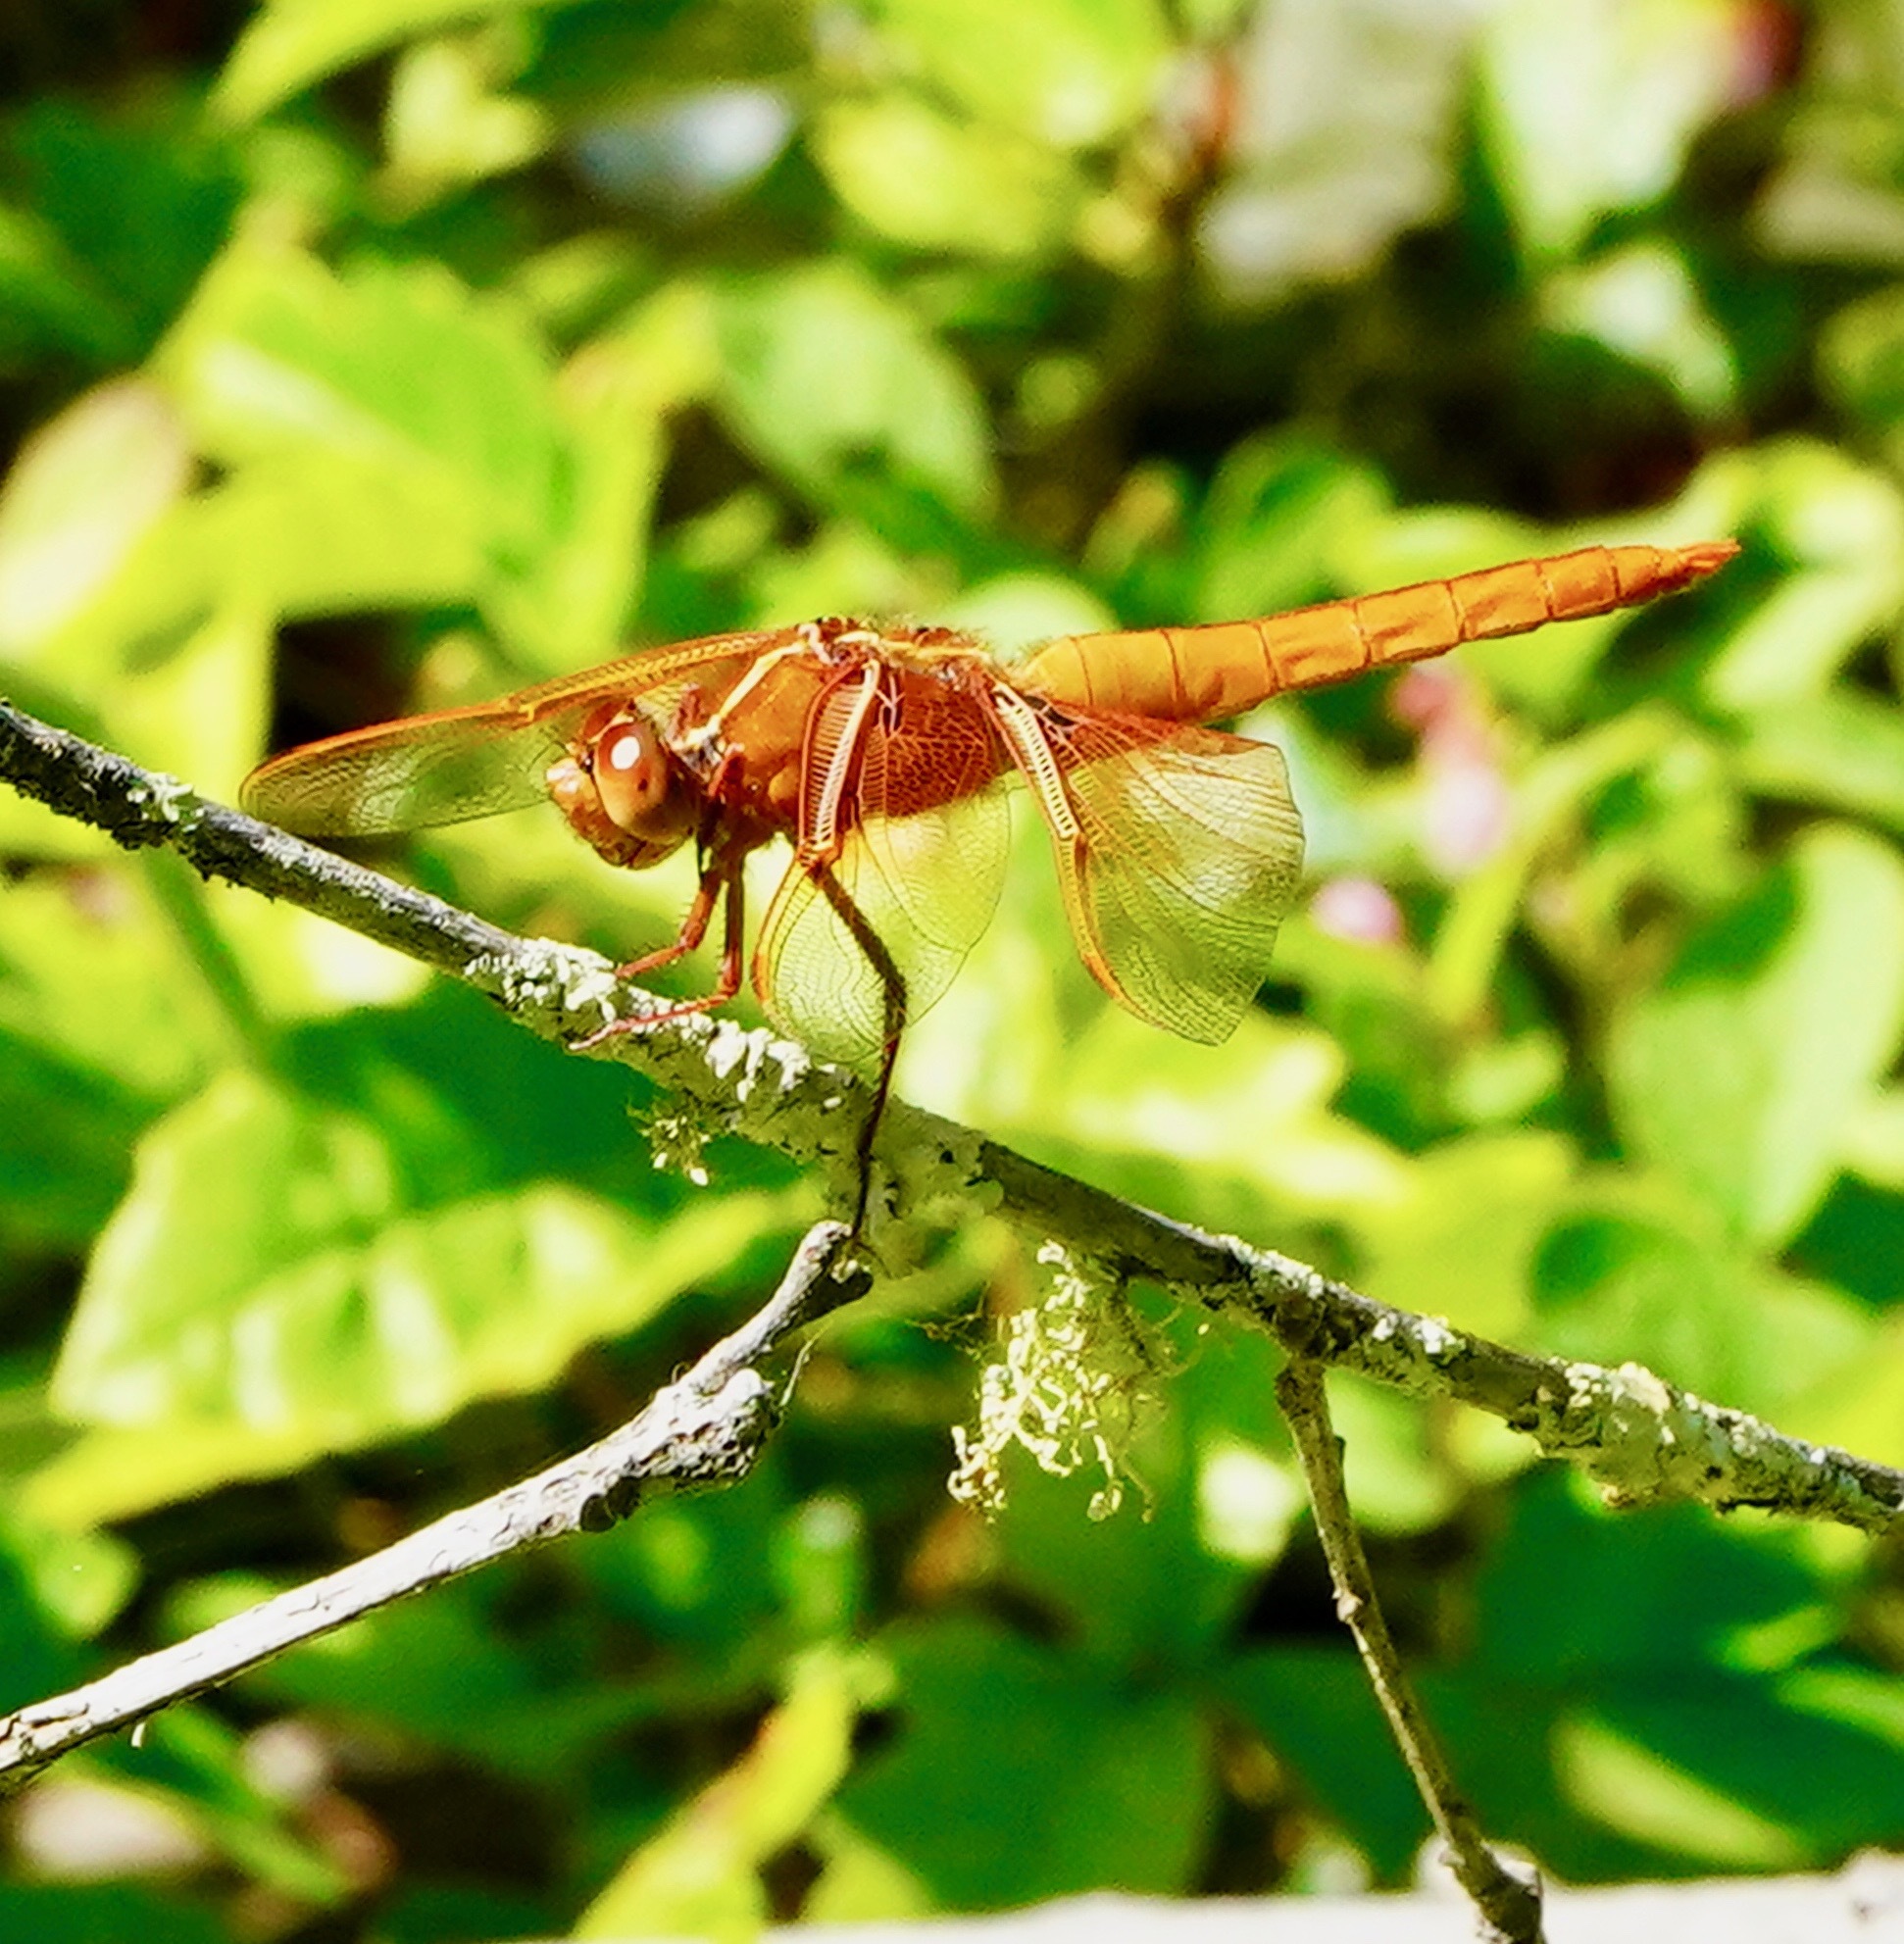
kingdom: Animalia
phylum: Arthropoda
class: Insecta
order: Odonata
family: Libellulidae
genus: Libellula
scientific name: Libellula saturata
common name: Flame skimmer
